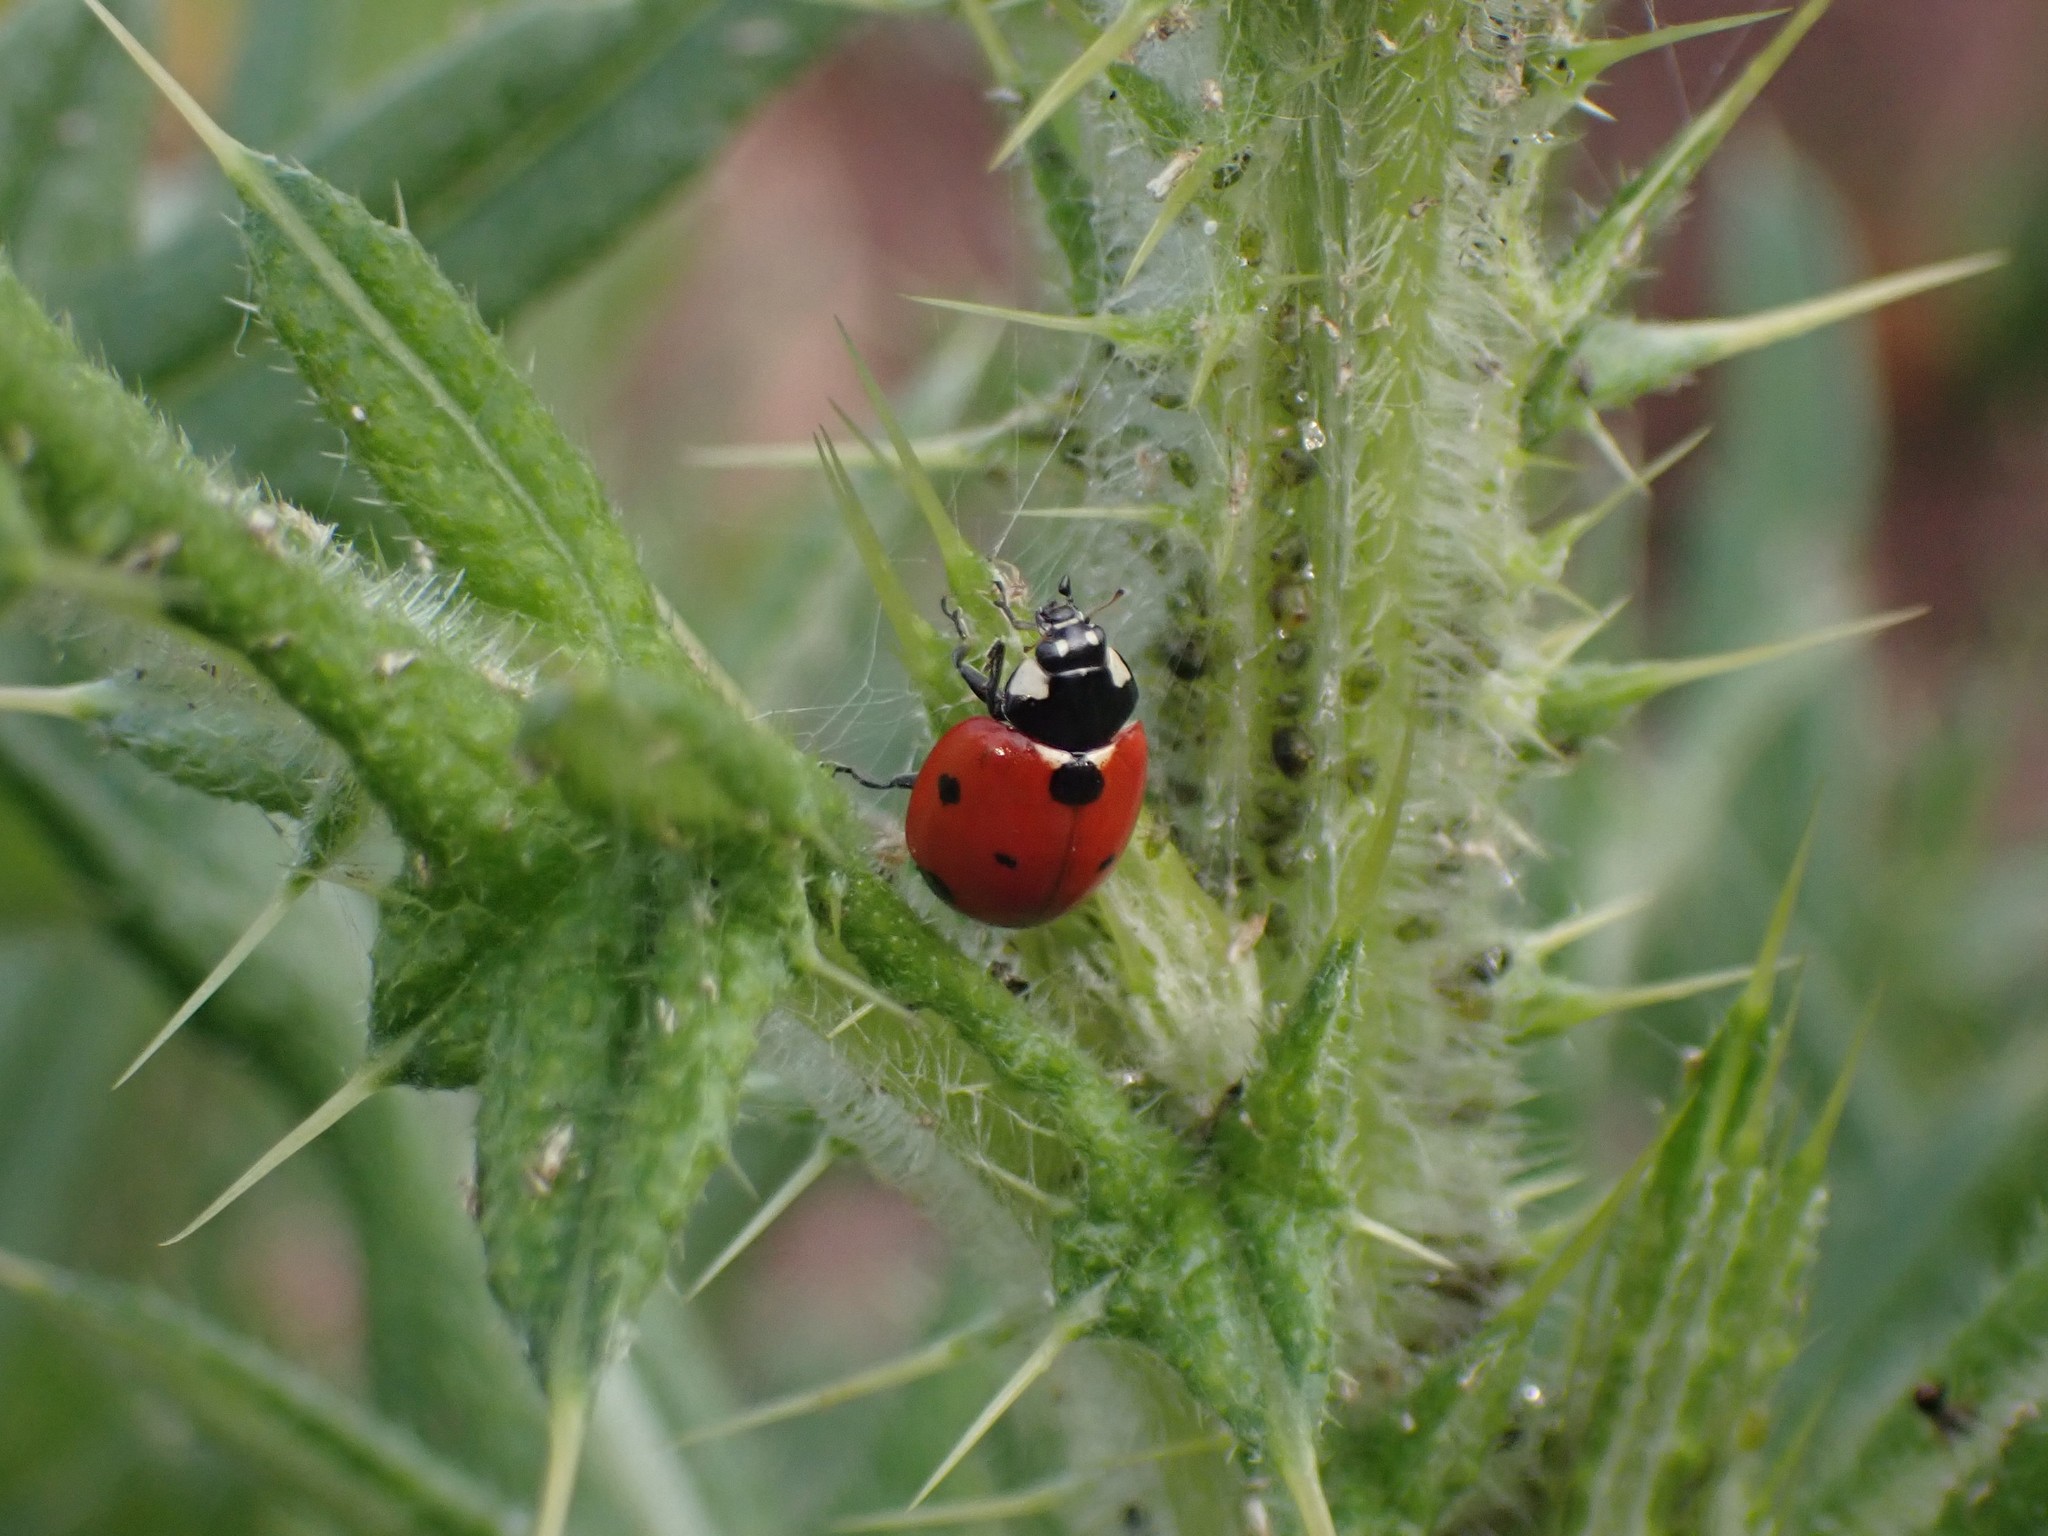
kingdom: Animalia
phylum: Arthropoda
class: Insecta
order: Coleoptera
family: Coccinellidae
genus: Coccinella
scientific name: Coccinella septempunctata
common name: Sevenspotted lady beetle
